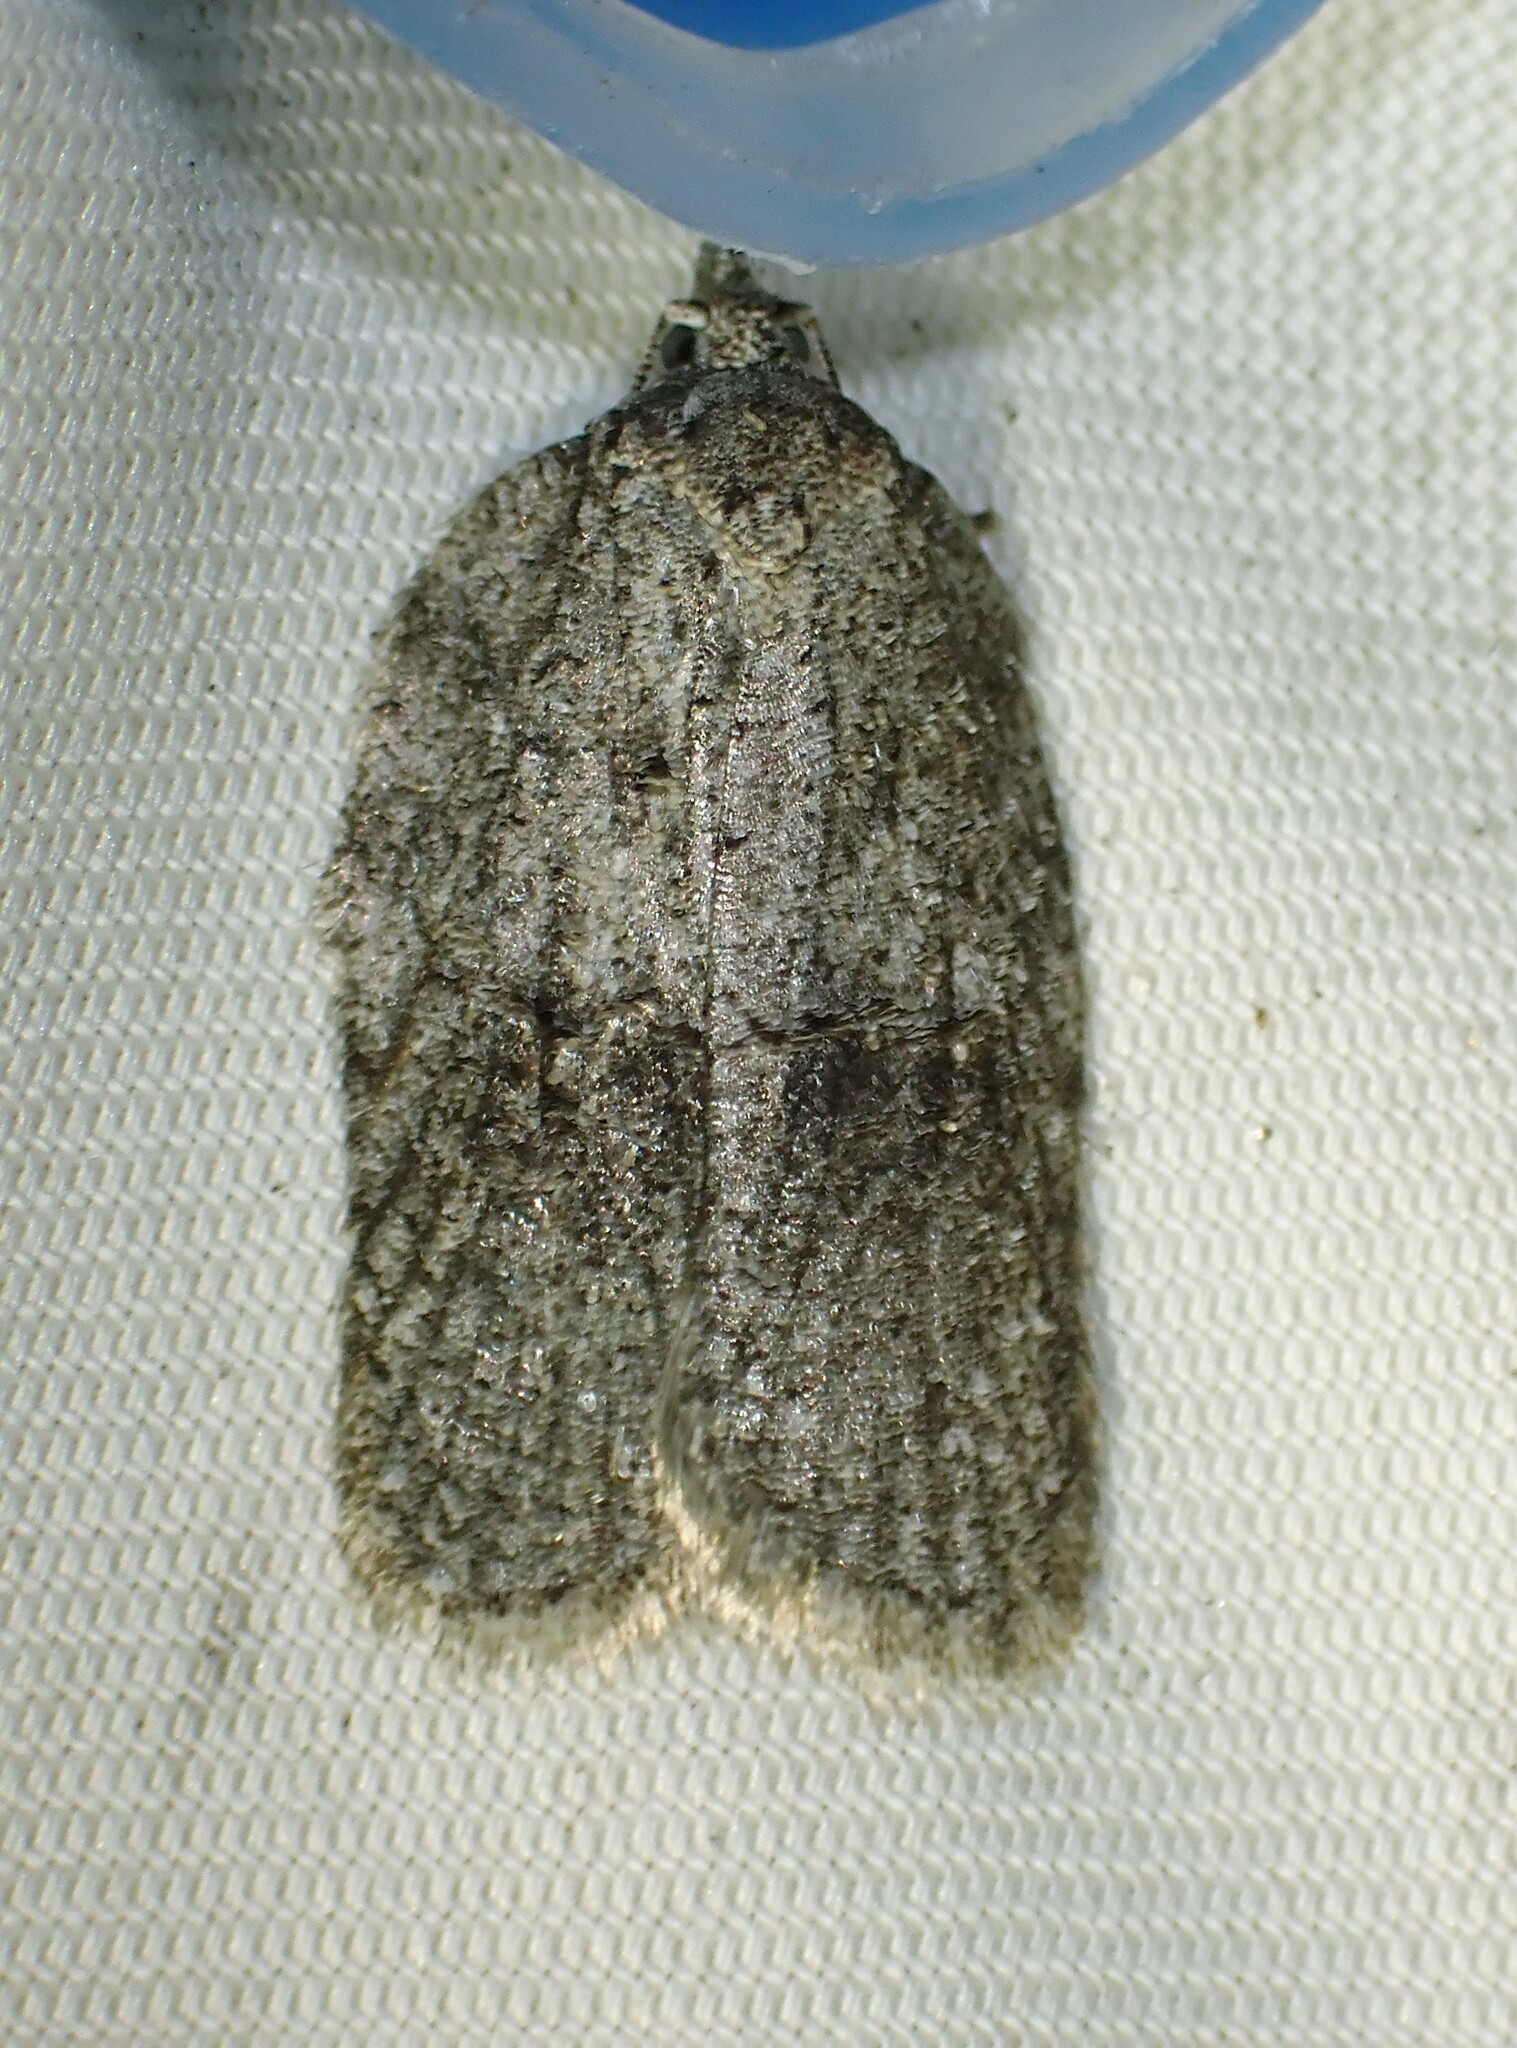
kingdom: Animalia
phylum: Arthropoda
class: Insecta
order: Lepidoptera
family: Tortricidae
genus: Acleris
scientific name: Acleris nigrolinea
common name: Black-lined acleris
